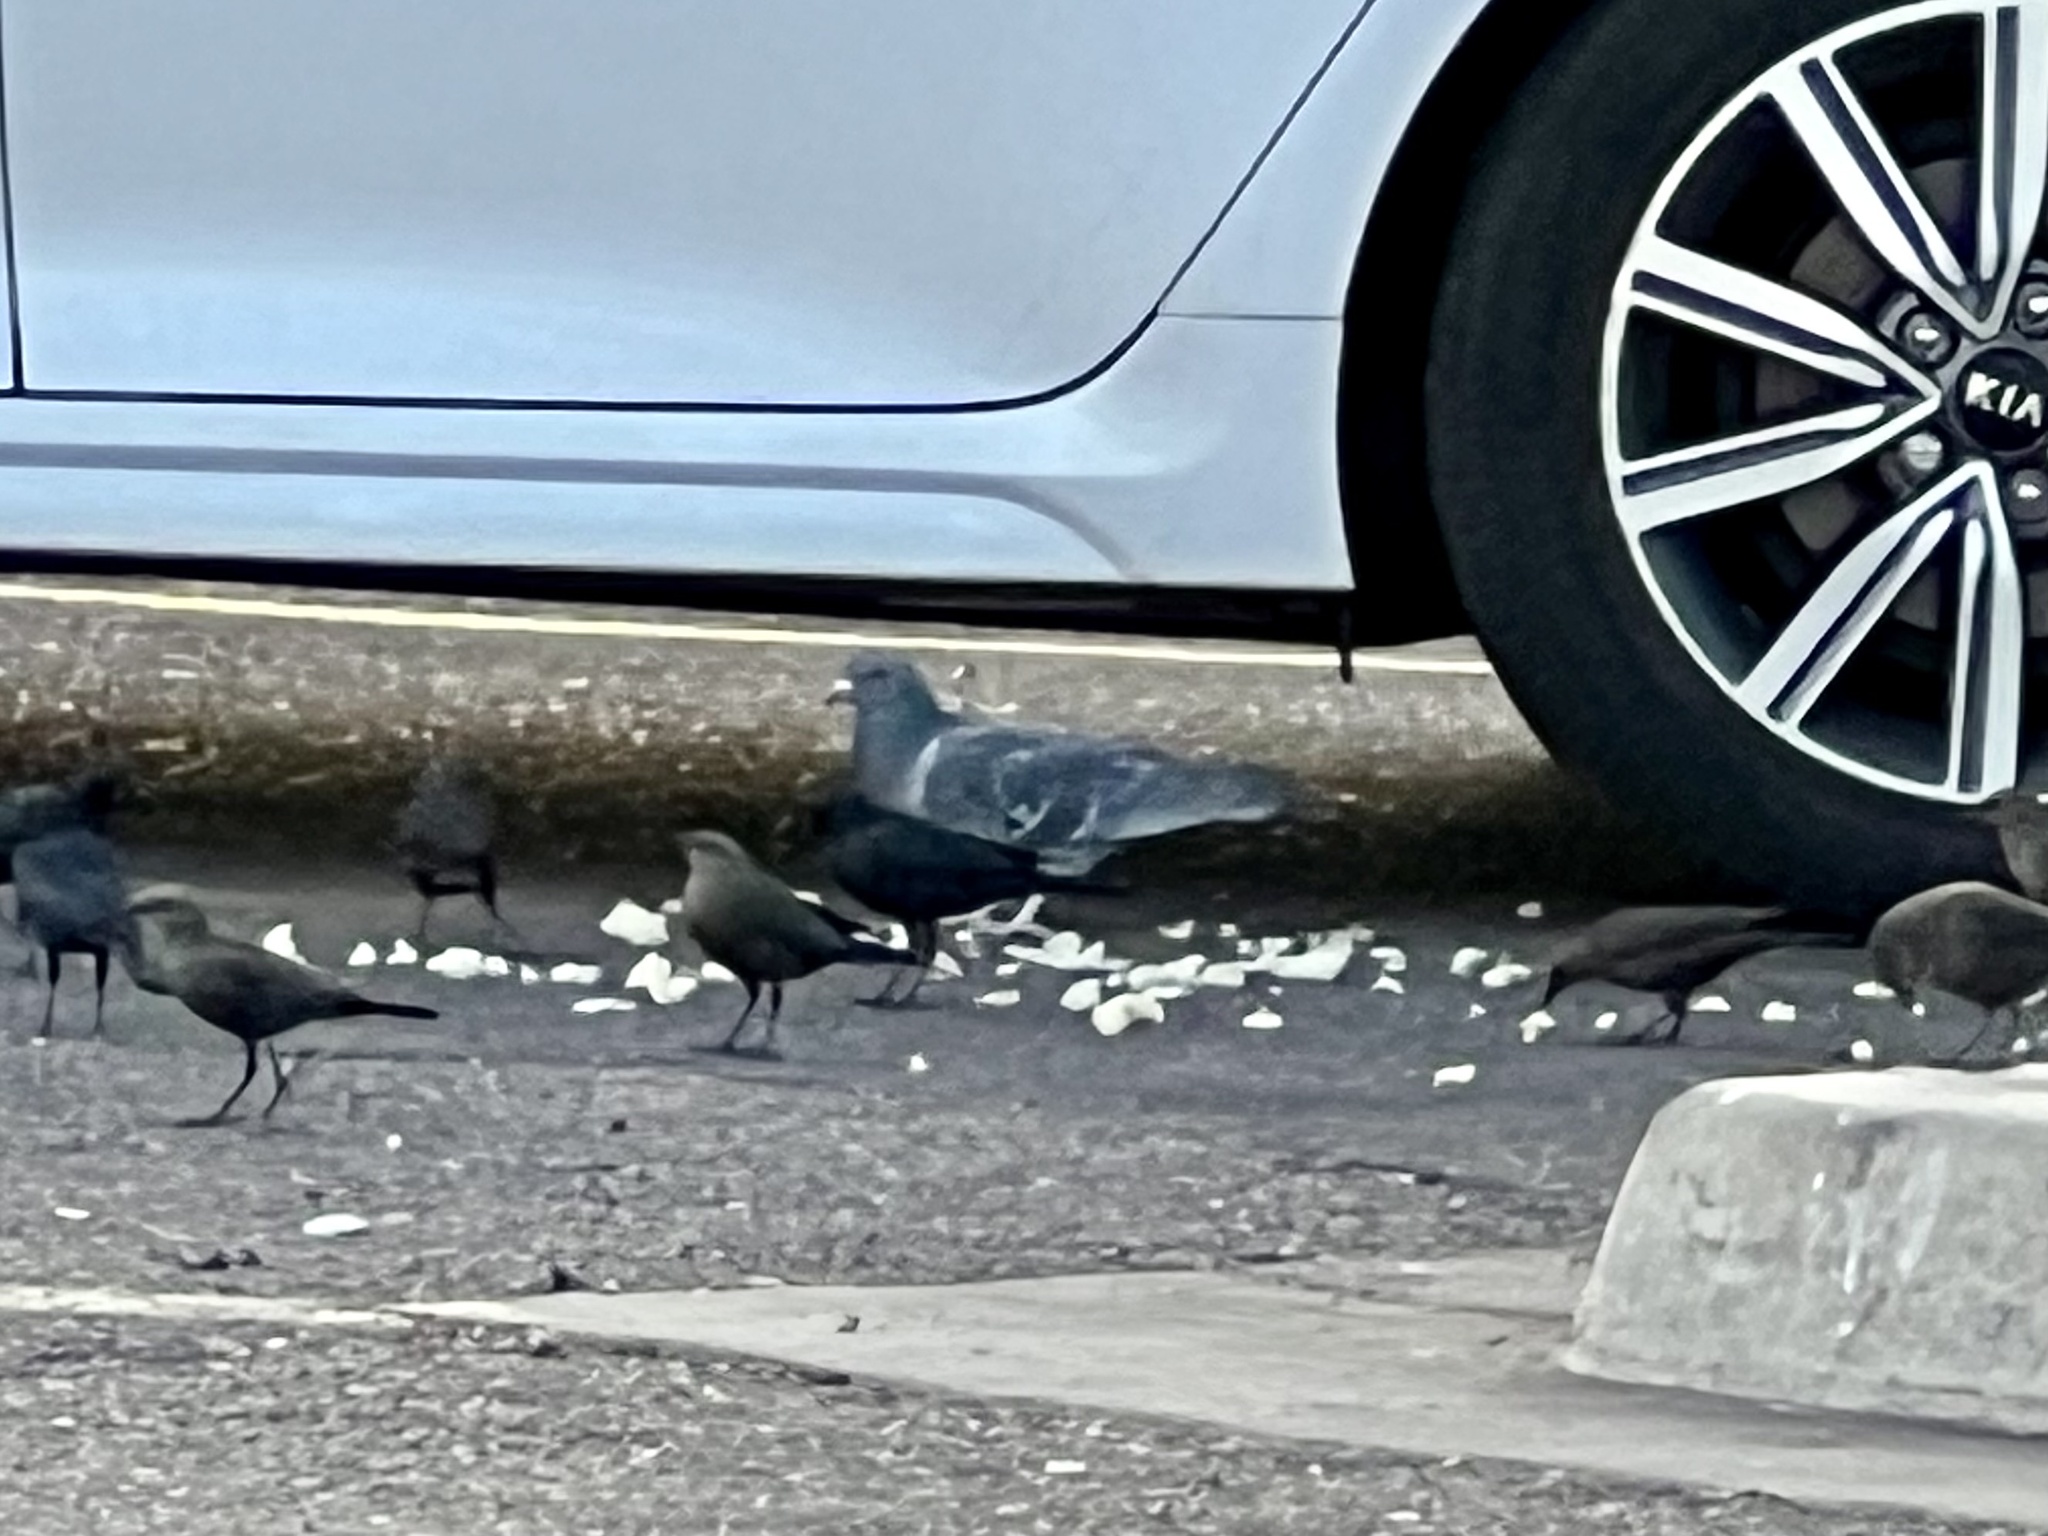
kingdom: Animalia
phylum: Chordata
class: Aves
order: Columbiformes
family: Columbidae
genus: Columba
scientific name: Columba livia
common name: Rock pigeon
